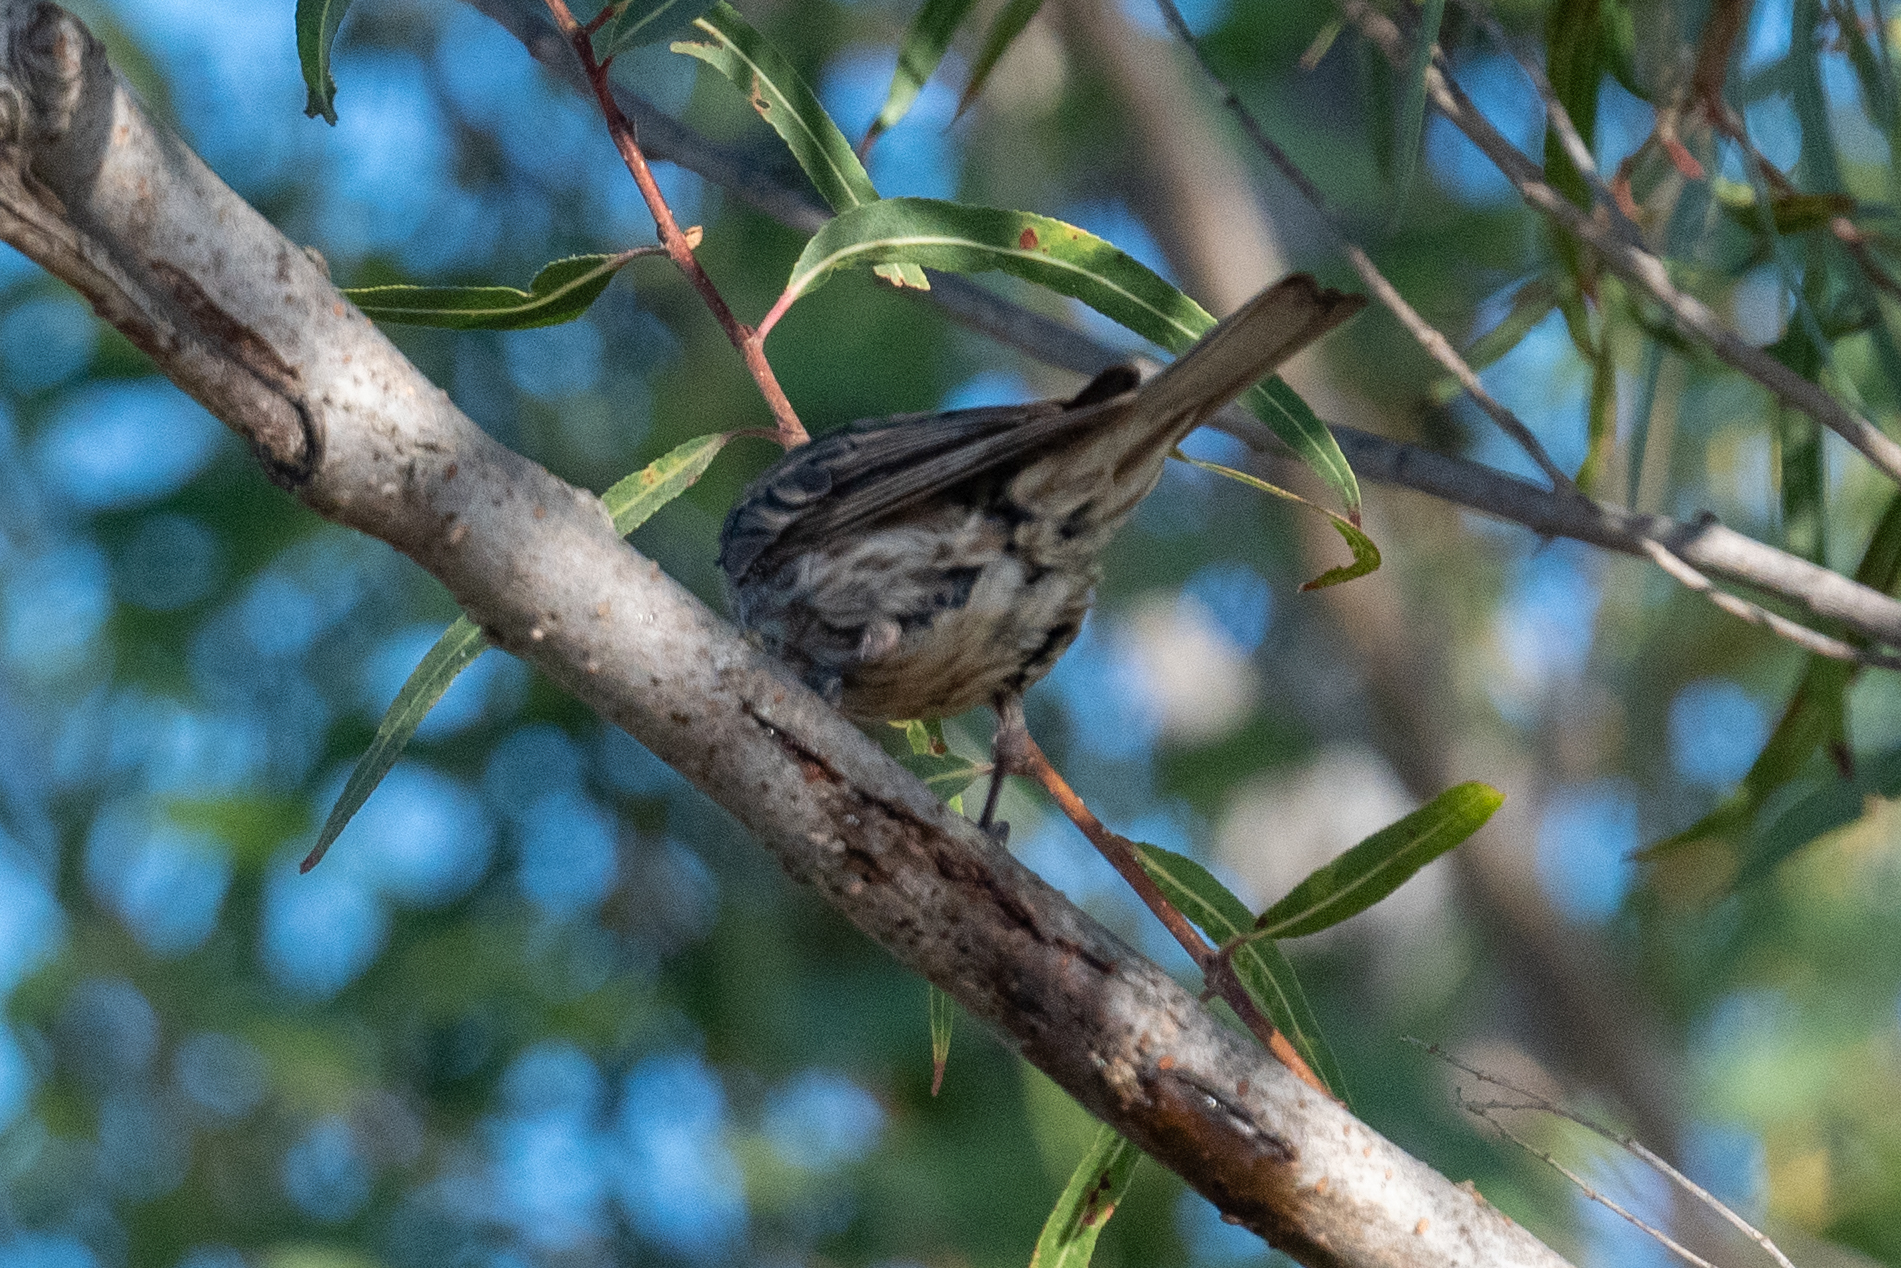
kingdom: Animalia
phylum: Chordata
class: Aves
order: Passeriformes
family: Fringillidae
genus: Haemorhous
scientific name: Haemorhous mexicanus
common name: House finch
